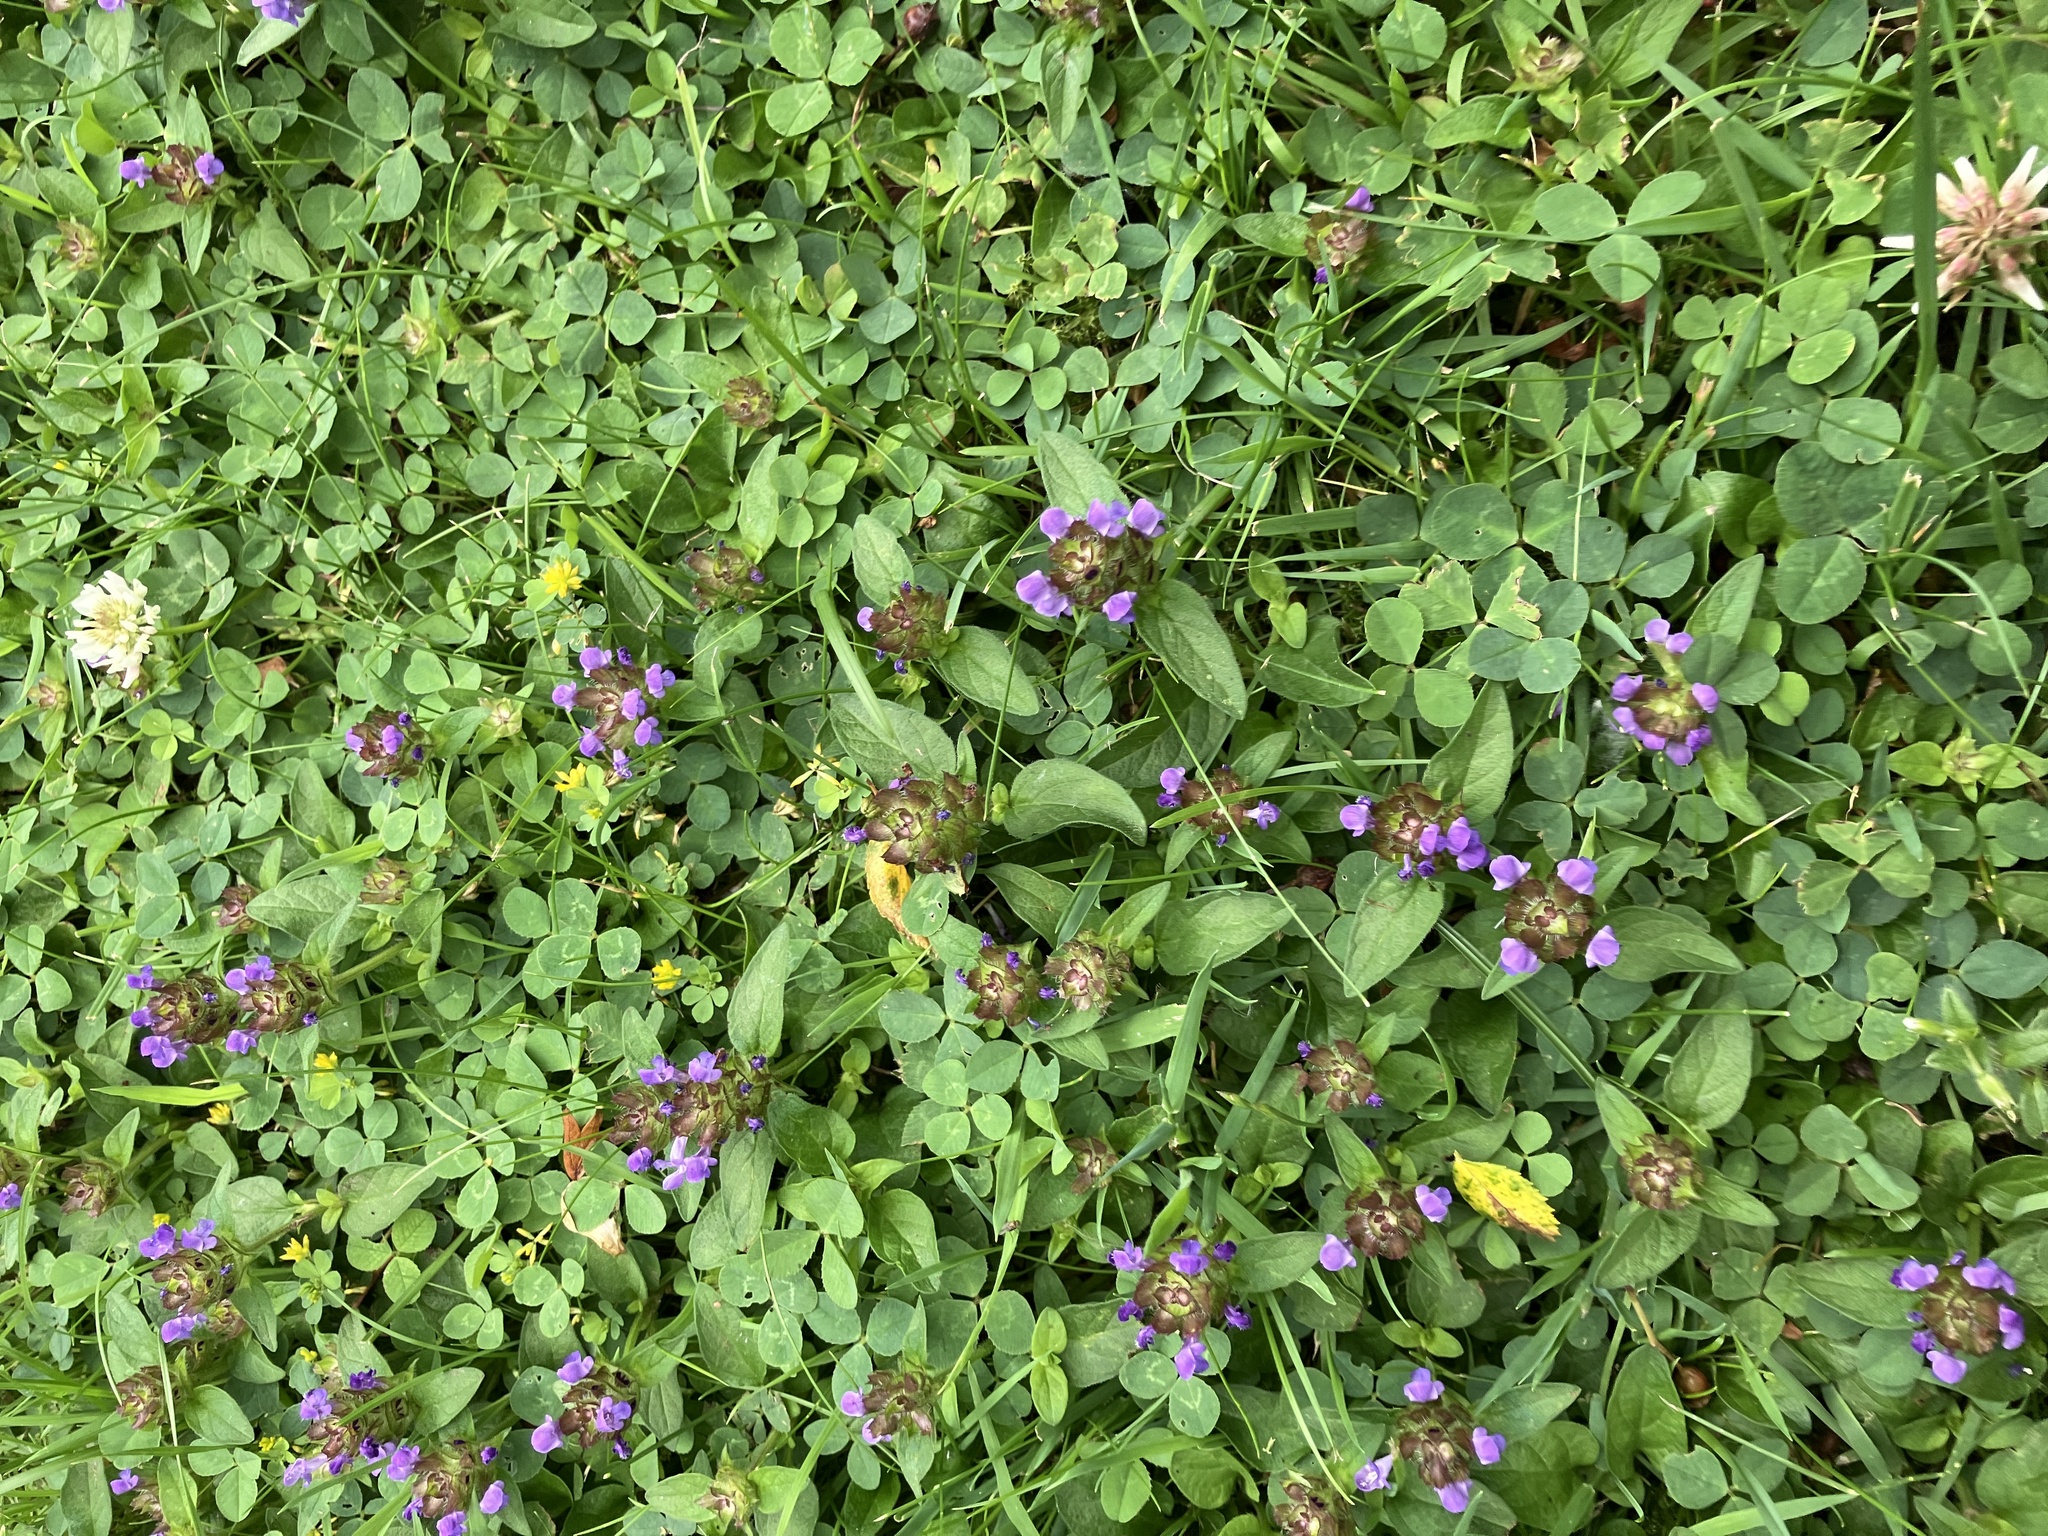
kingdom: Plantae
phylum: Tracheophyta
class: Magnoliopsida
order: Lamiales
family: Lamiaceae
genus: Prunella
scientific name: Prunella vulgaris
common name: Heal-all
